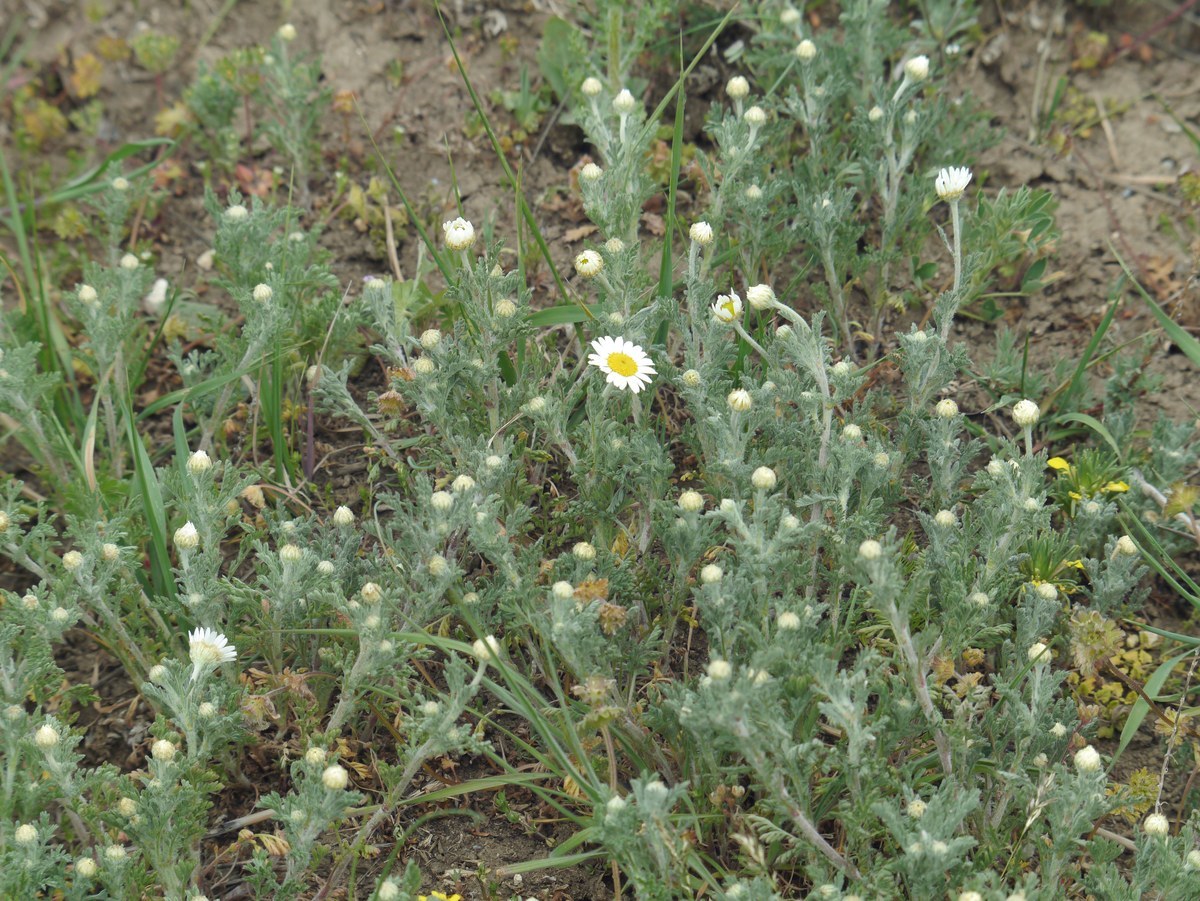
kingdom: Plantae
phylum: Tracheophyta
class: Magnoliopsida
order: Asterales
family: Asteraceae
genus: Anthemis
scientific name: Anthemis ruthenica
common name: Eastern chamomile
